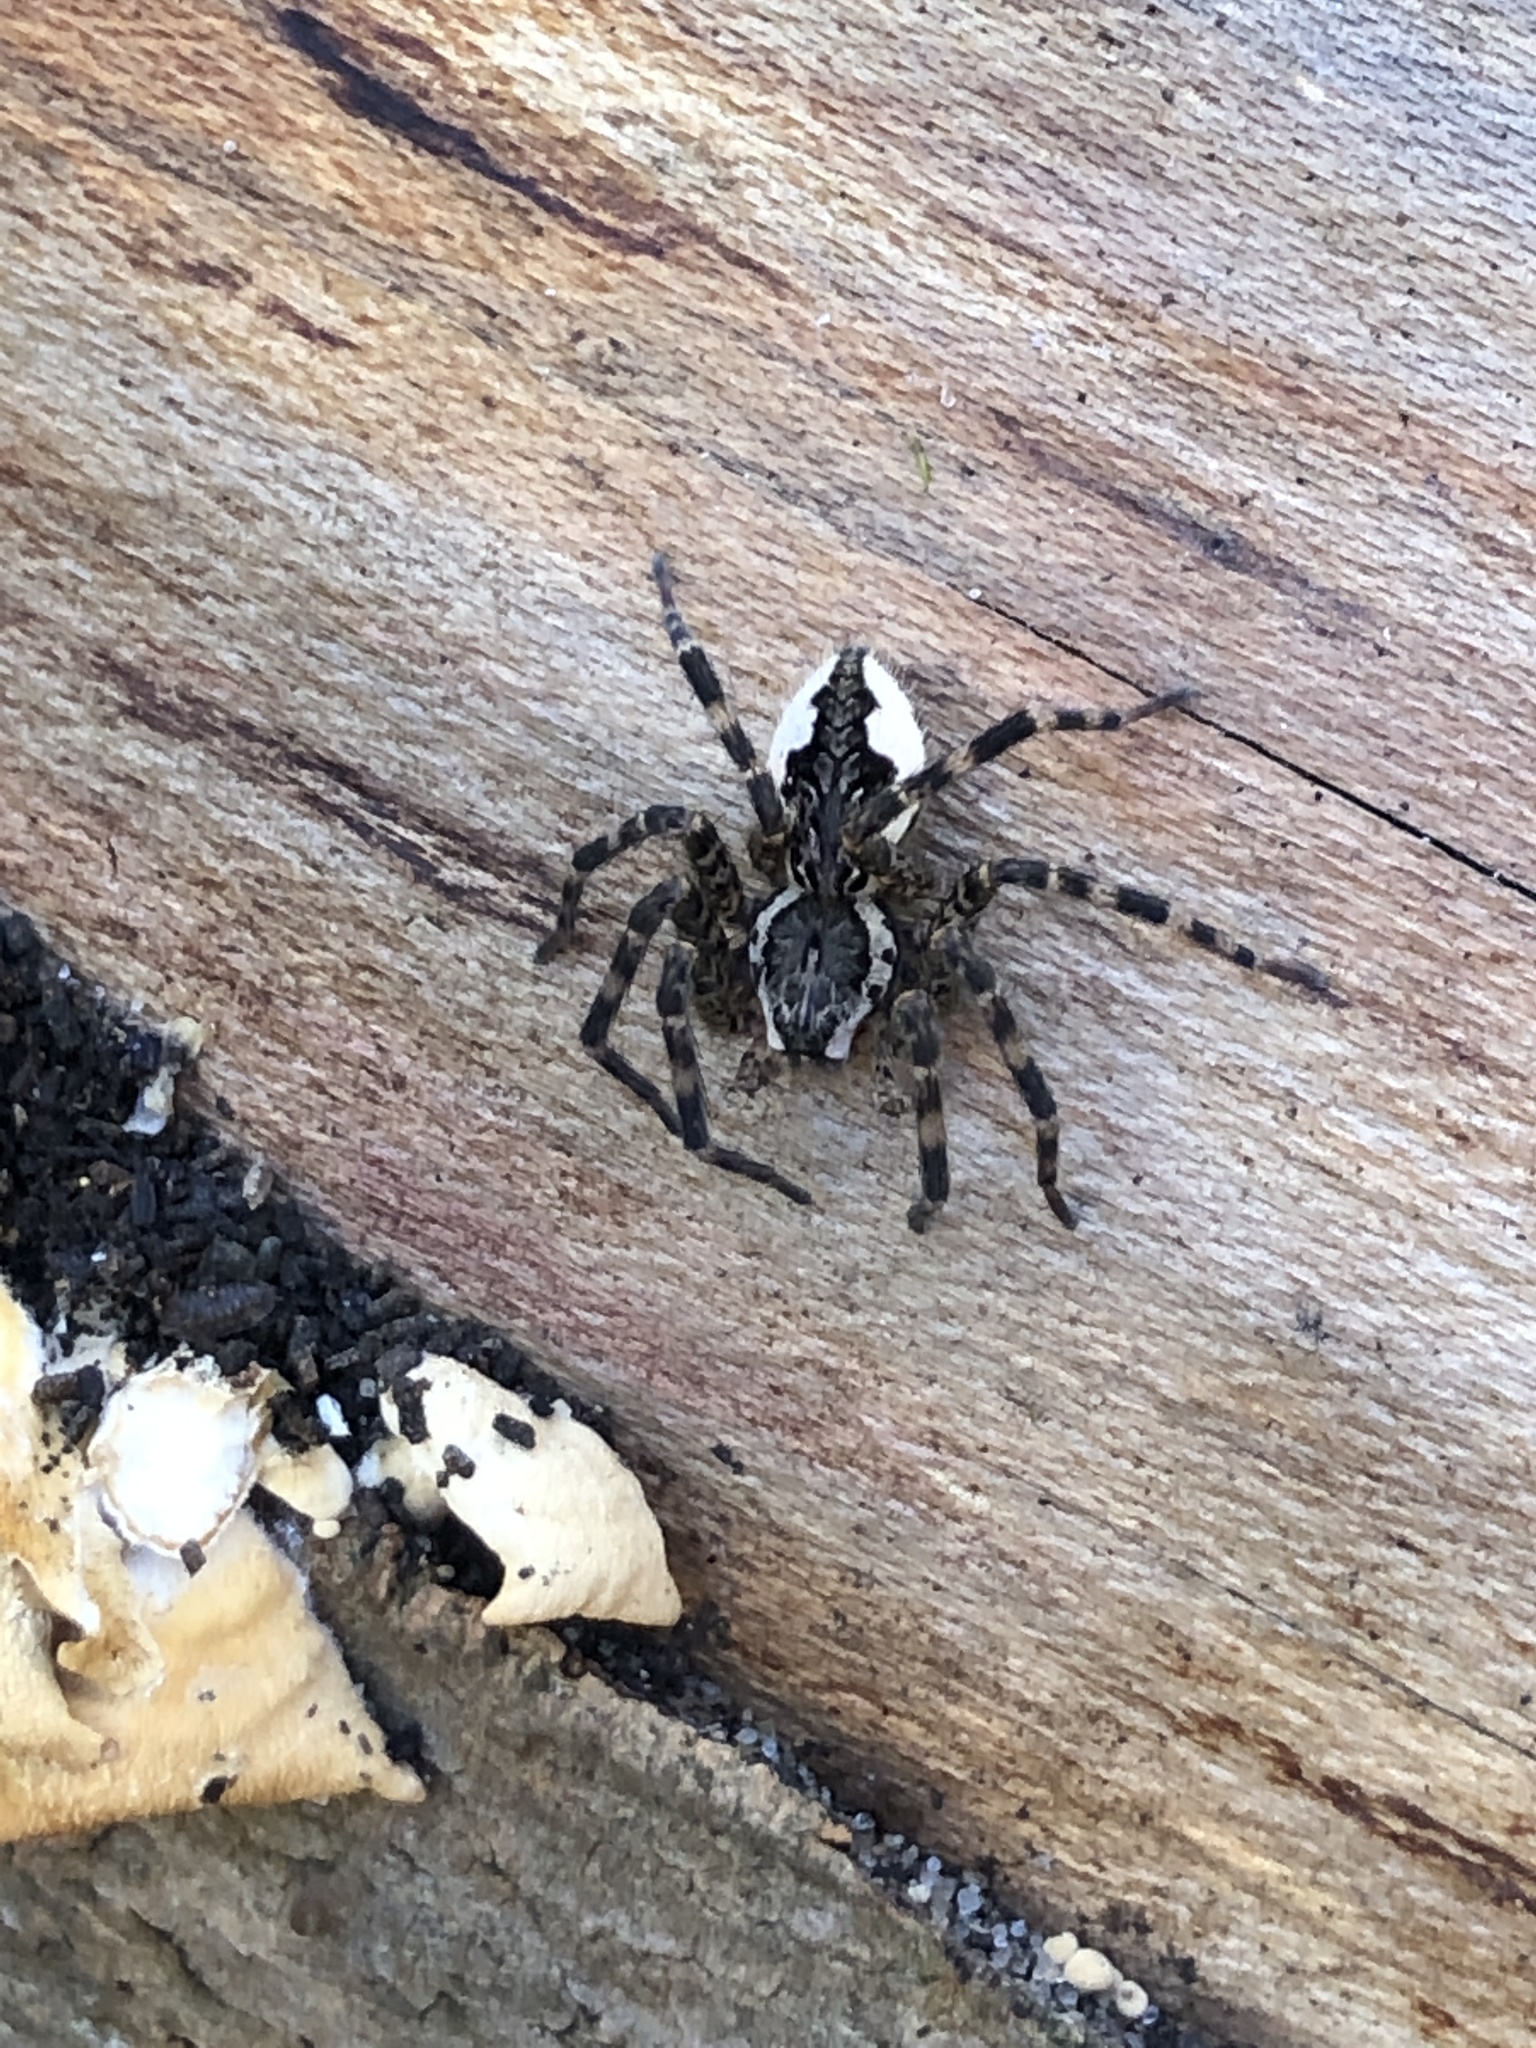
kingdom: Animalia
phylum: Arthropoda
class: Arachnida
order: Araneae
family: Pisauridae
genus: Dolomedes
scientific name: Dolomedes tenebrosus
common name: Dark fishing spider
